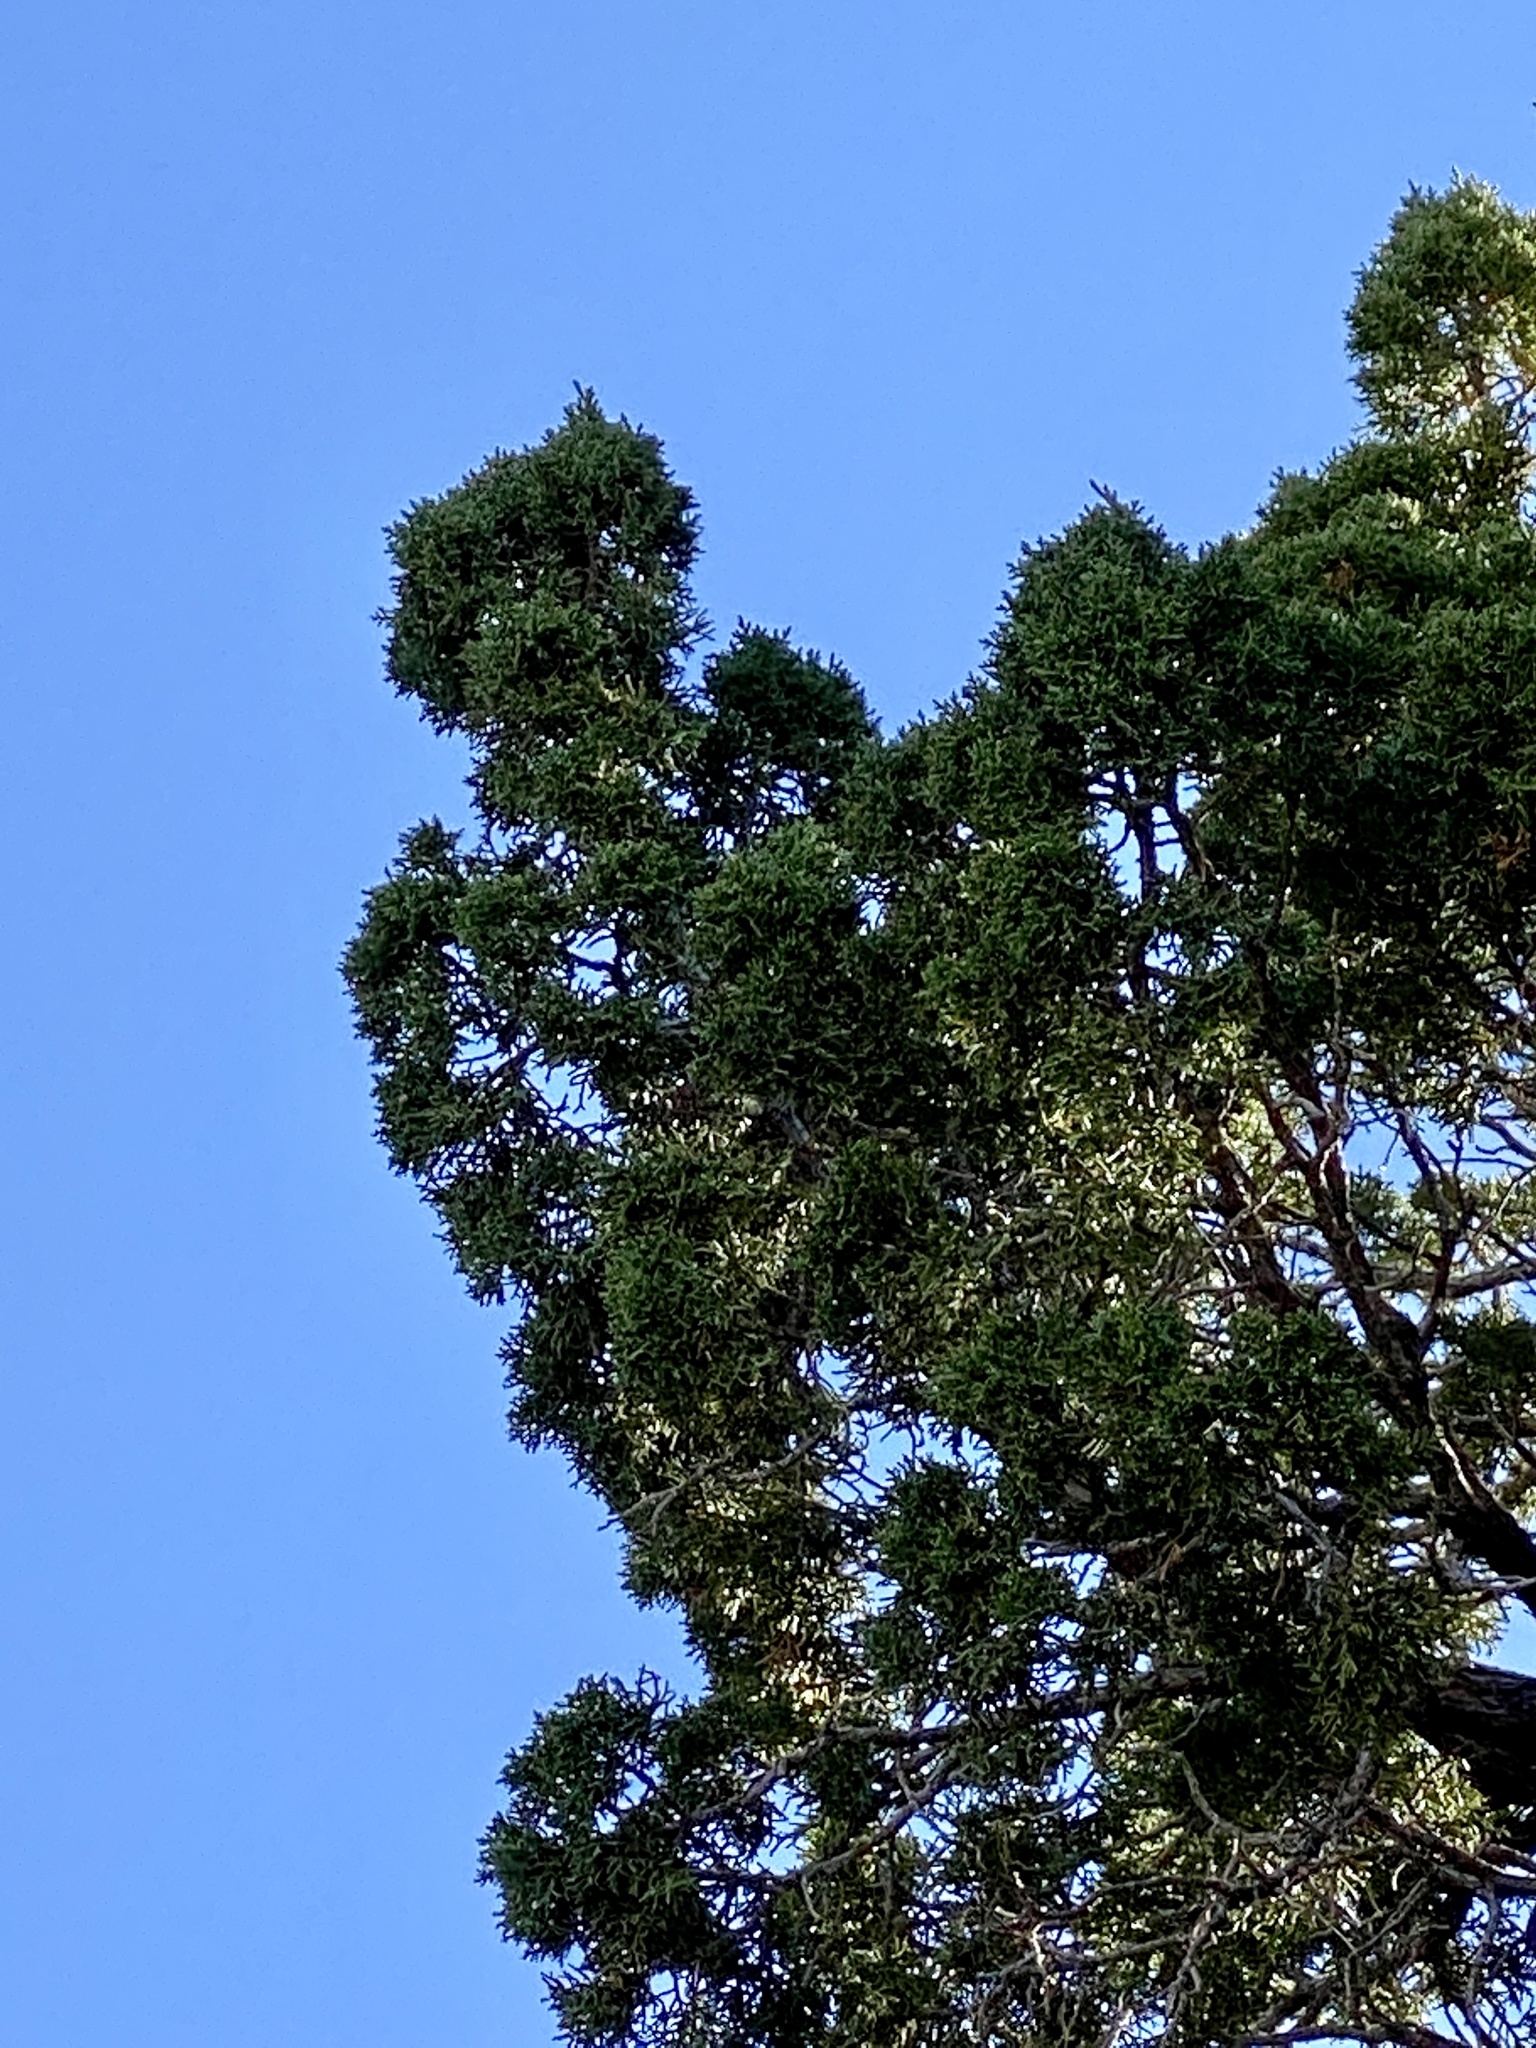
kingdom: Plantae
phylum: Tracheophyta
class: Pinopsida
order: Pinales
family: Cupressaceae
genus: Juniperus
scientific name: Juniperus monosperma
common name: One-seed juniper
